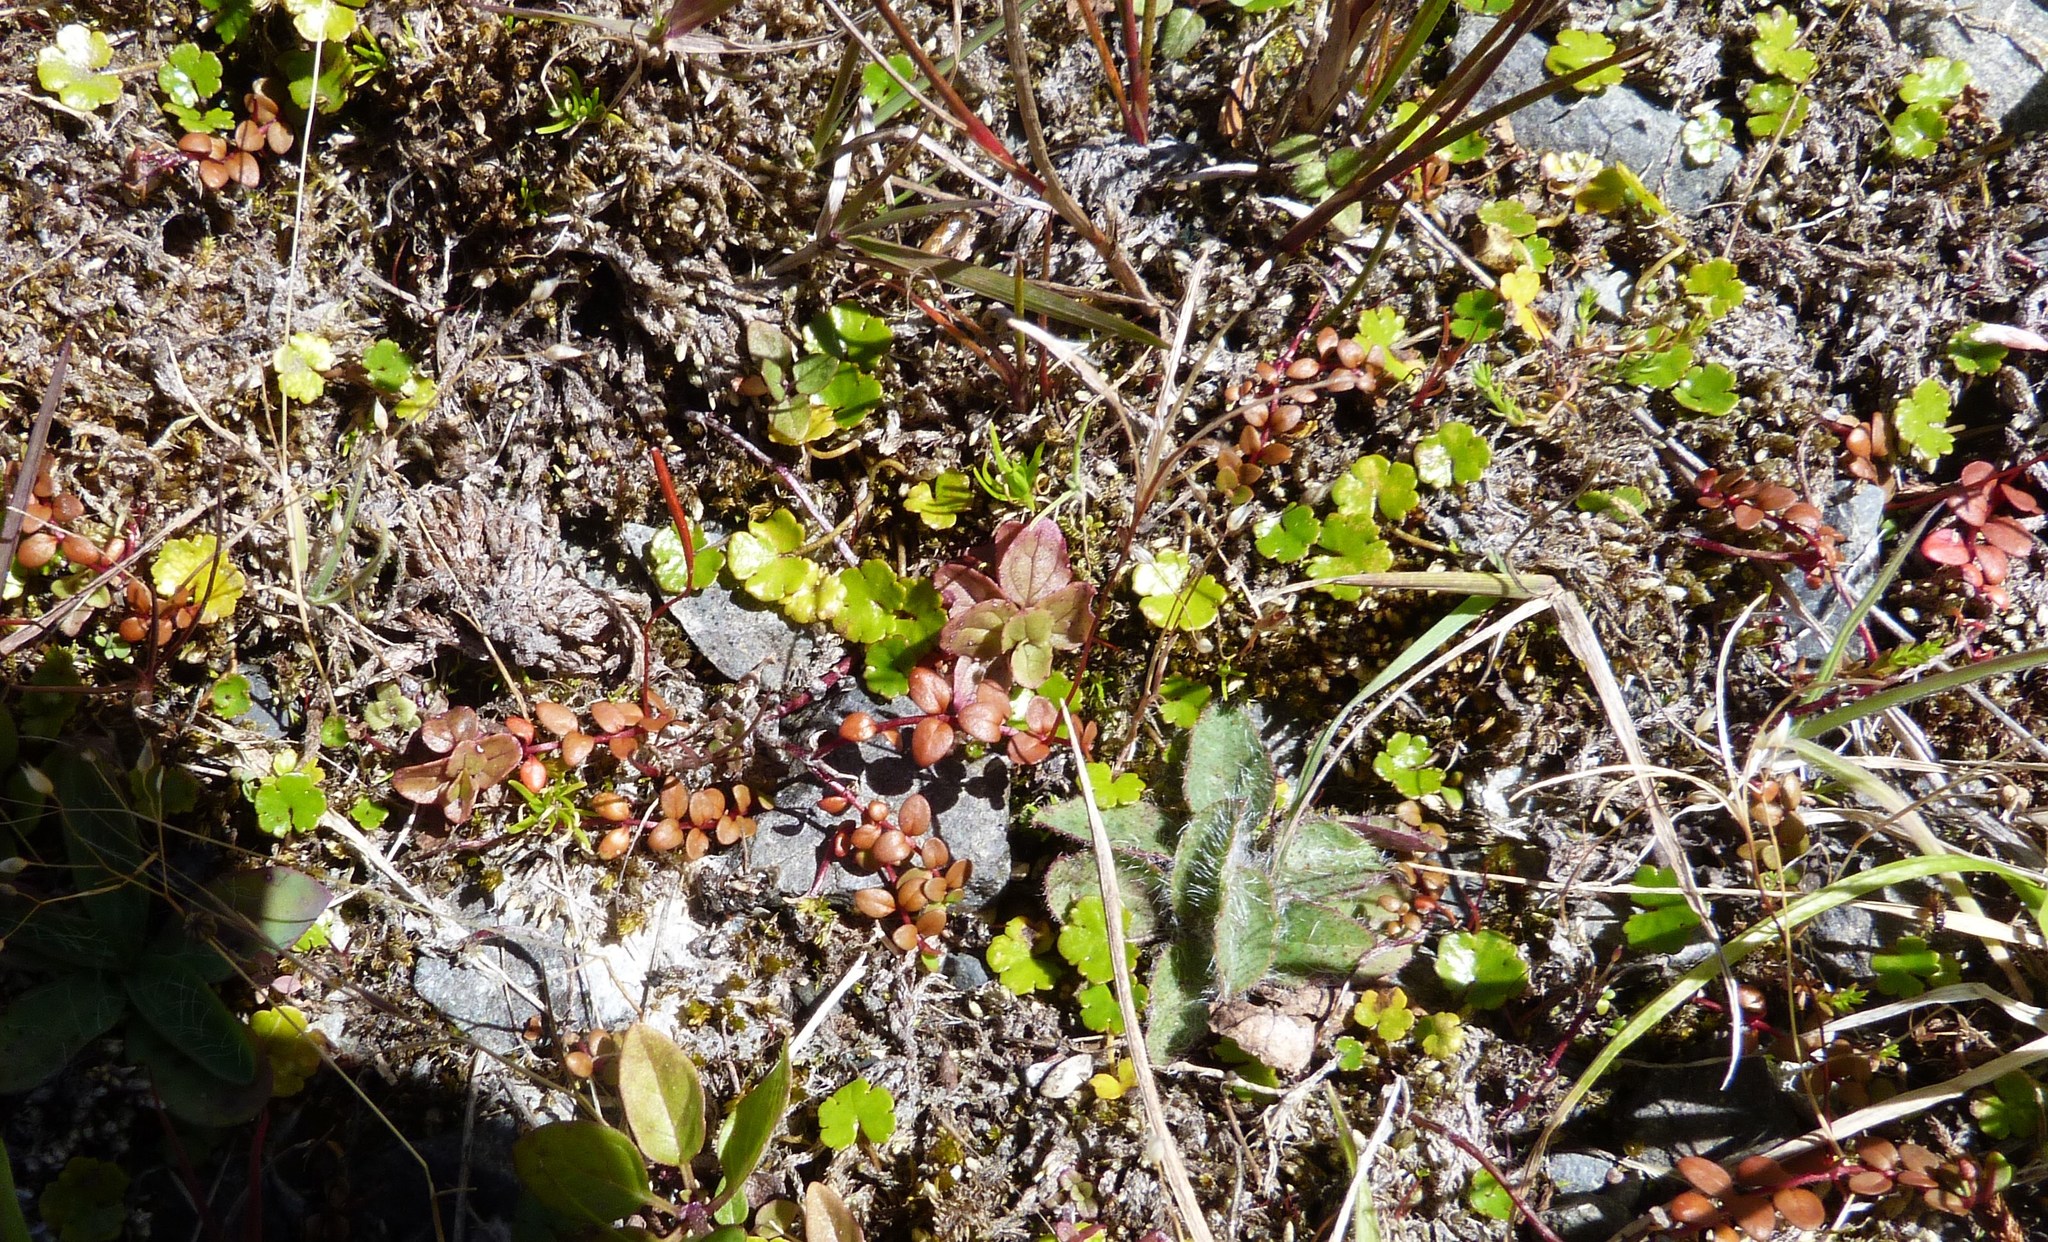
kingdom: Plantae
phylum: Tracheophyta
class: Magnoliopsida
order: Myrtales
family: Onagraceae
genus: Epilobium
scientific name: Epilobium brunnescens
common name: New zealand willowherb
